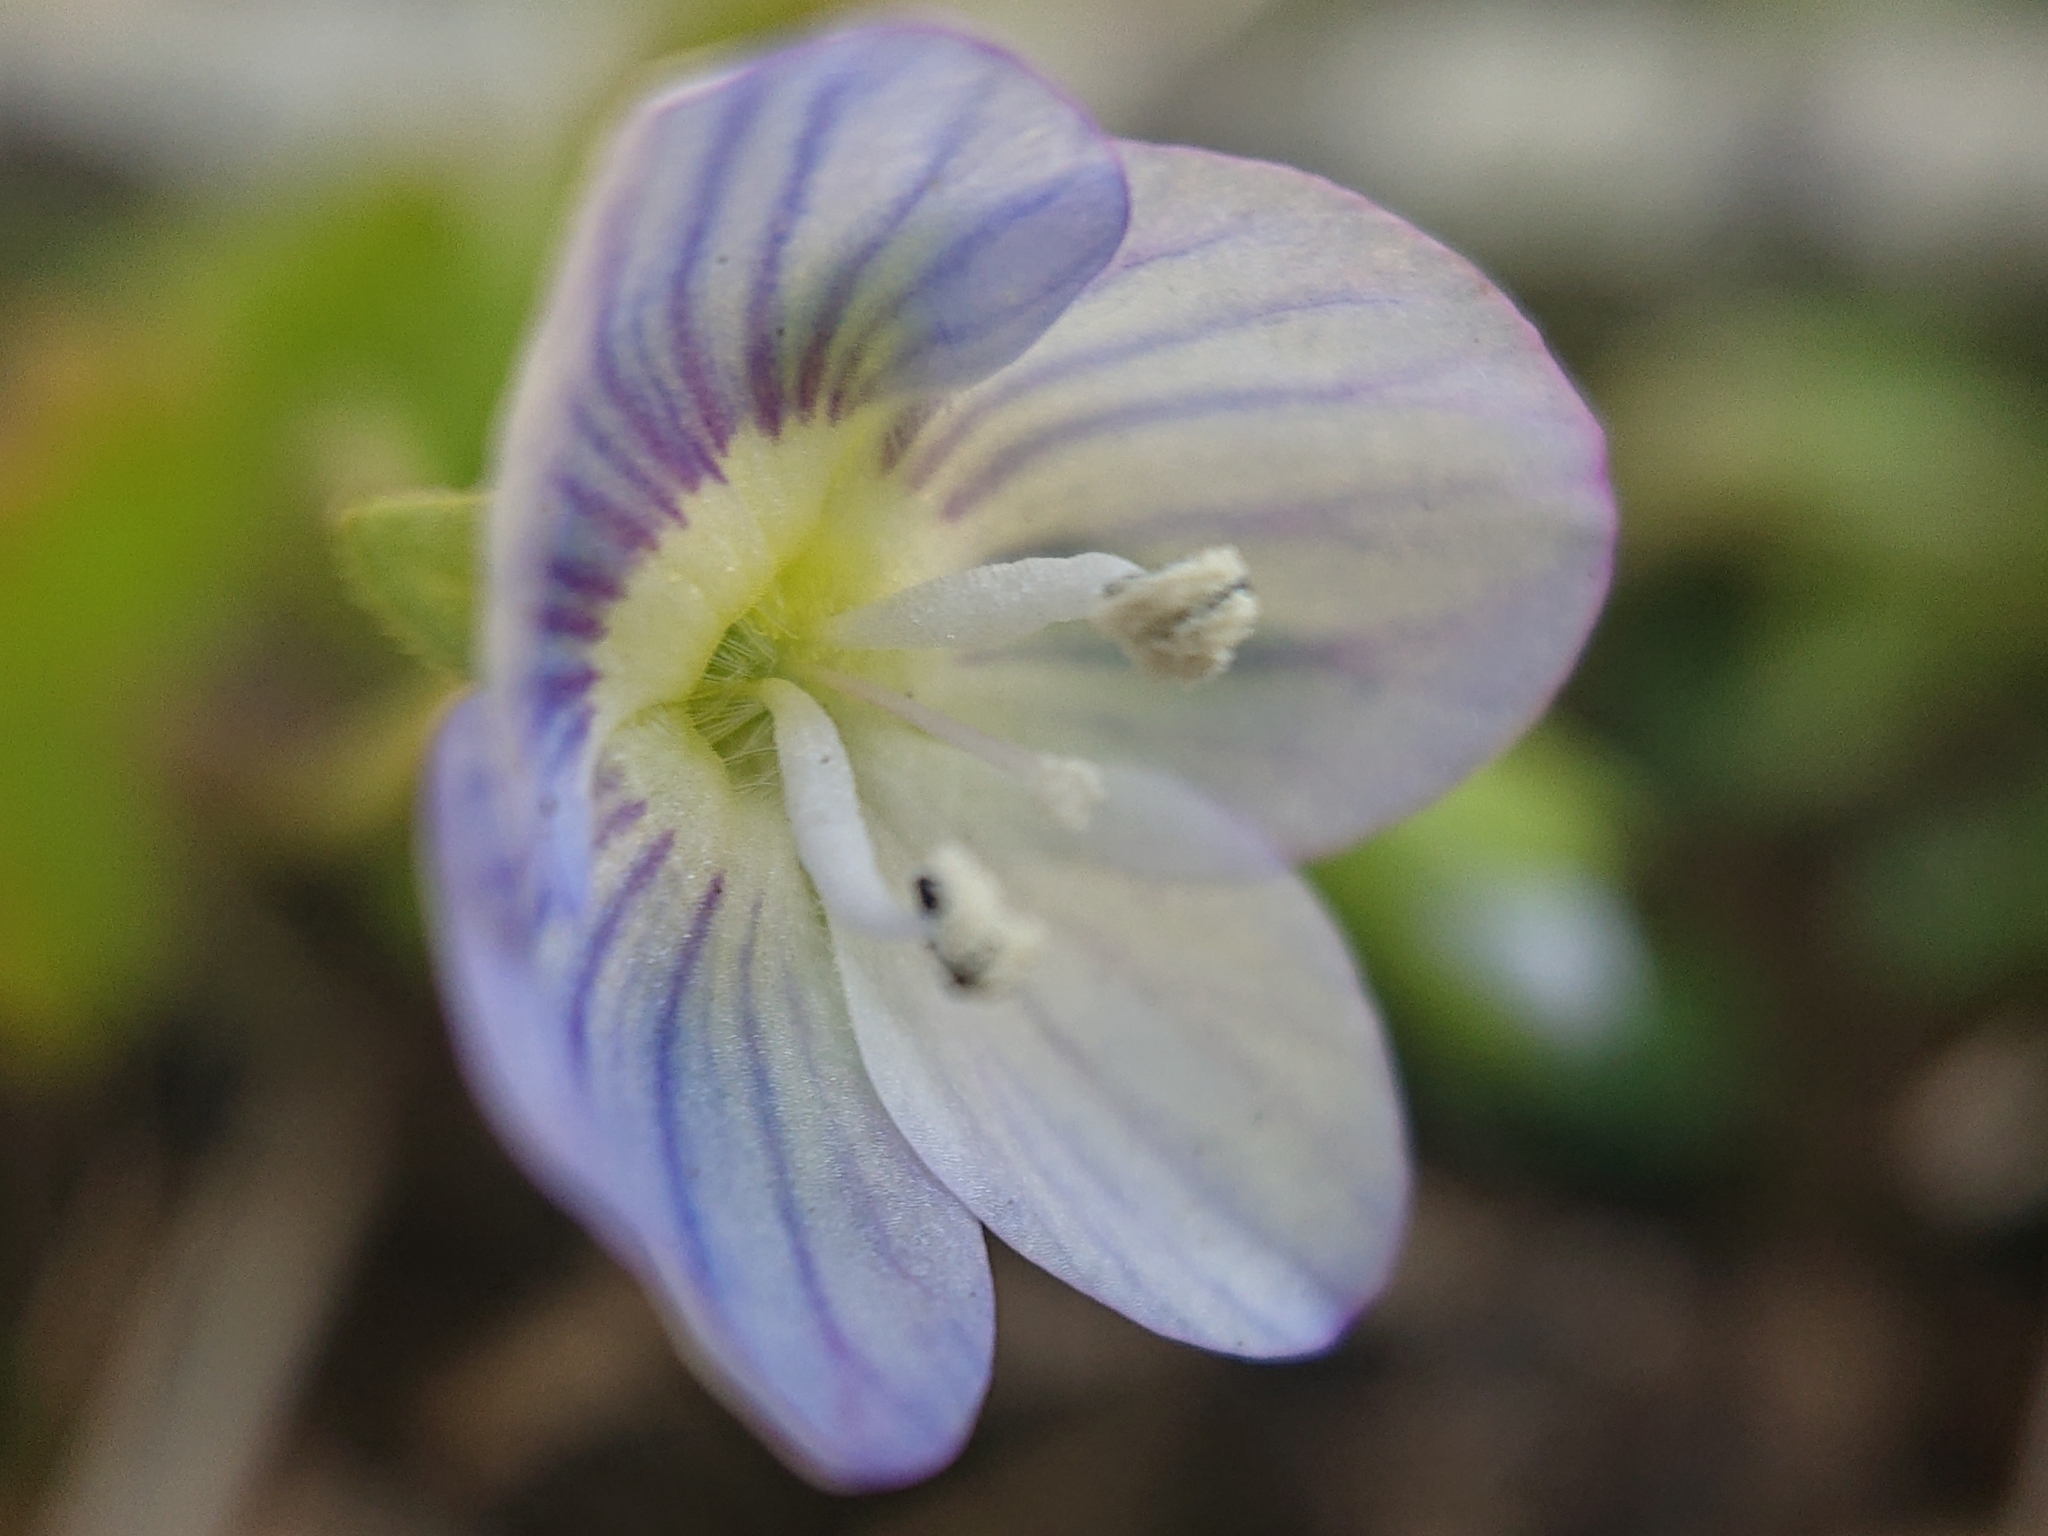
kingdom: Plantae
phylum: Tracheophyta
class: Magnoliopsida
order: Lamiales
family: Plantaginaceae
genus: Veronica
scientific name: Veronica persica
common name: Common field-speedwell
